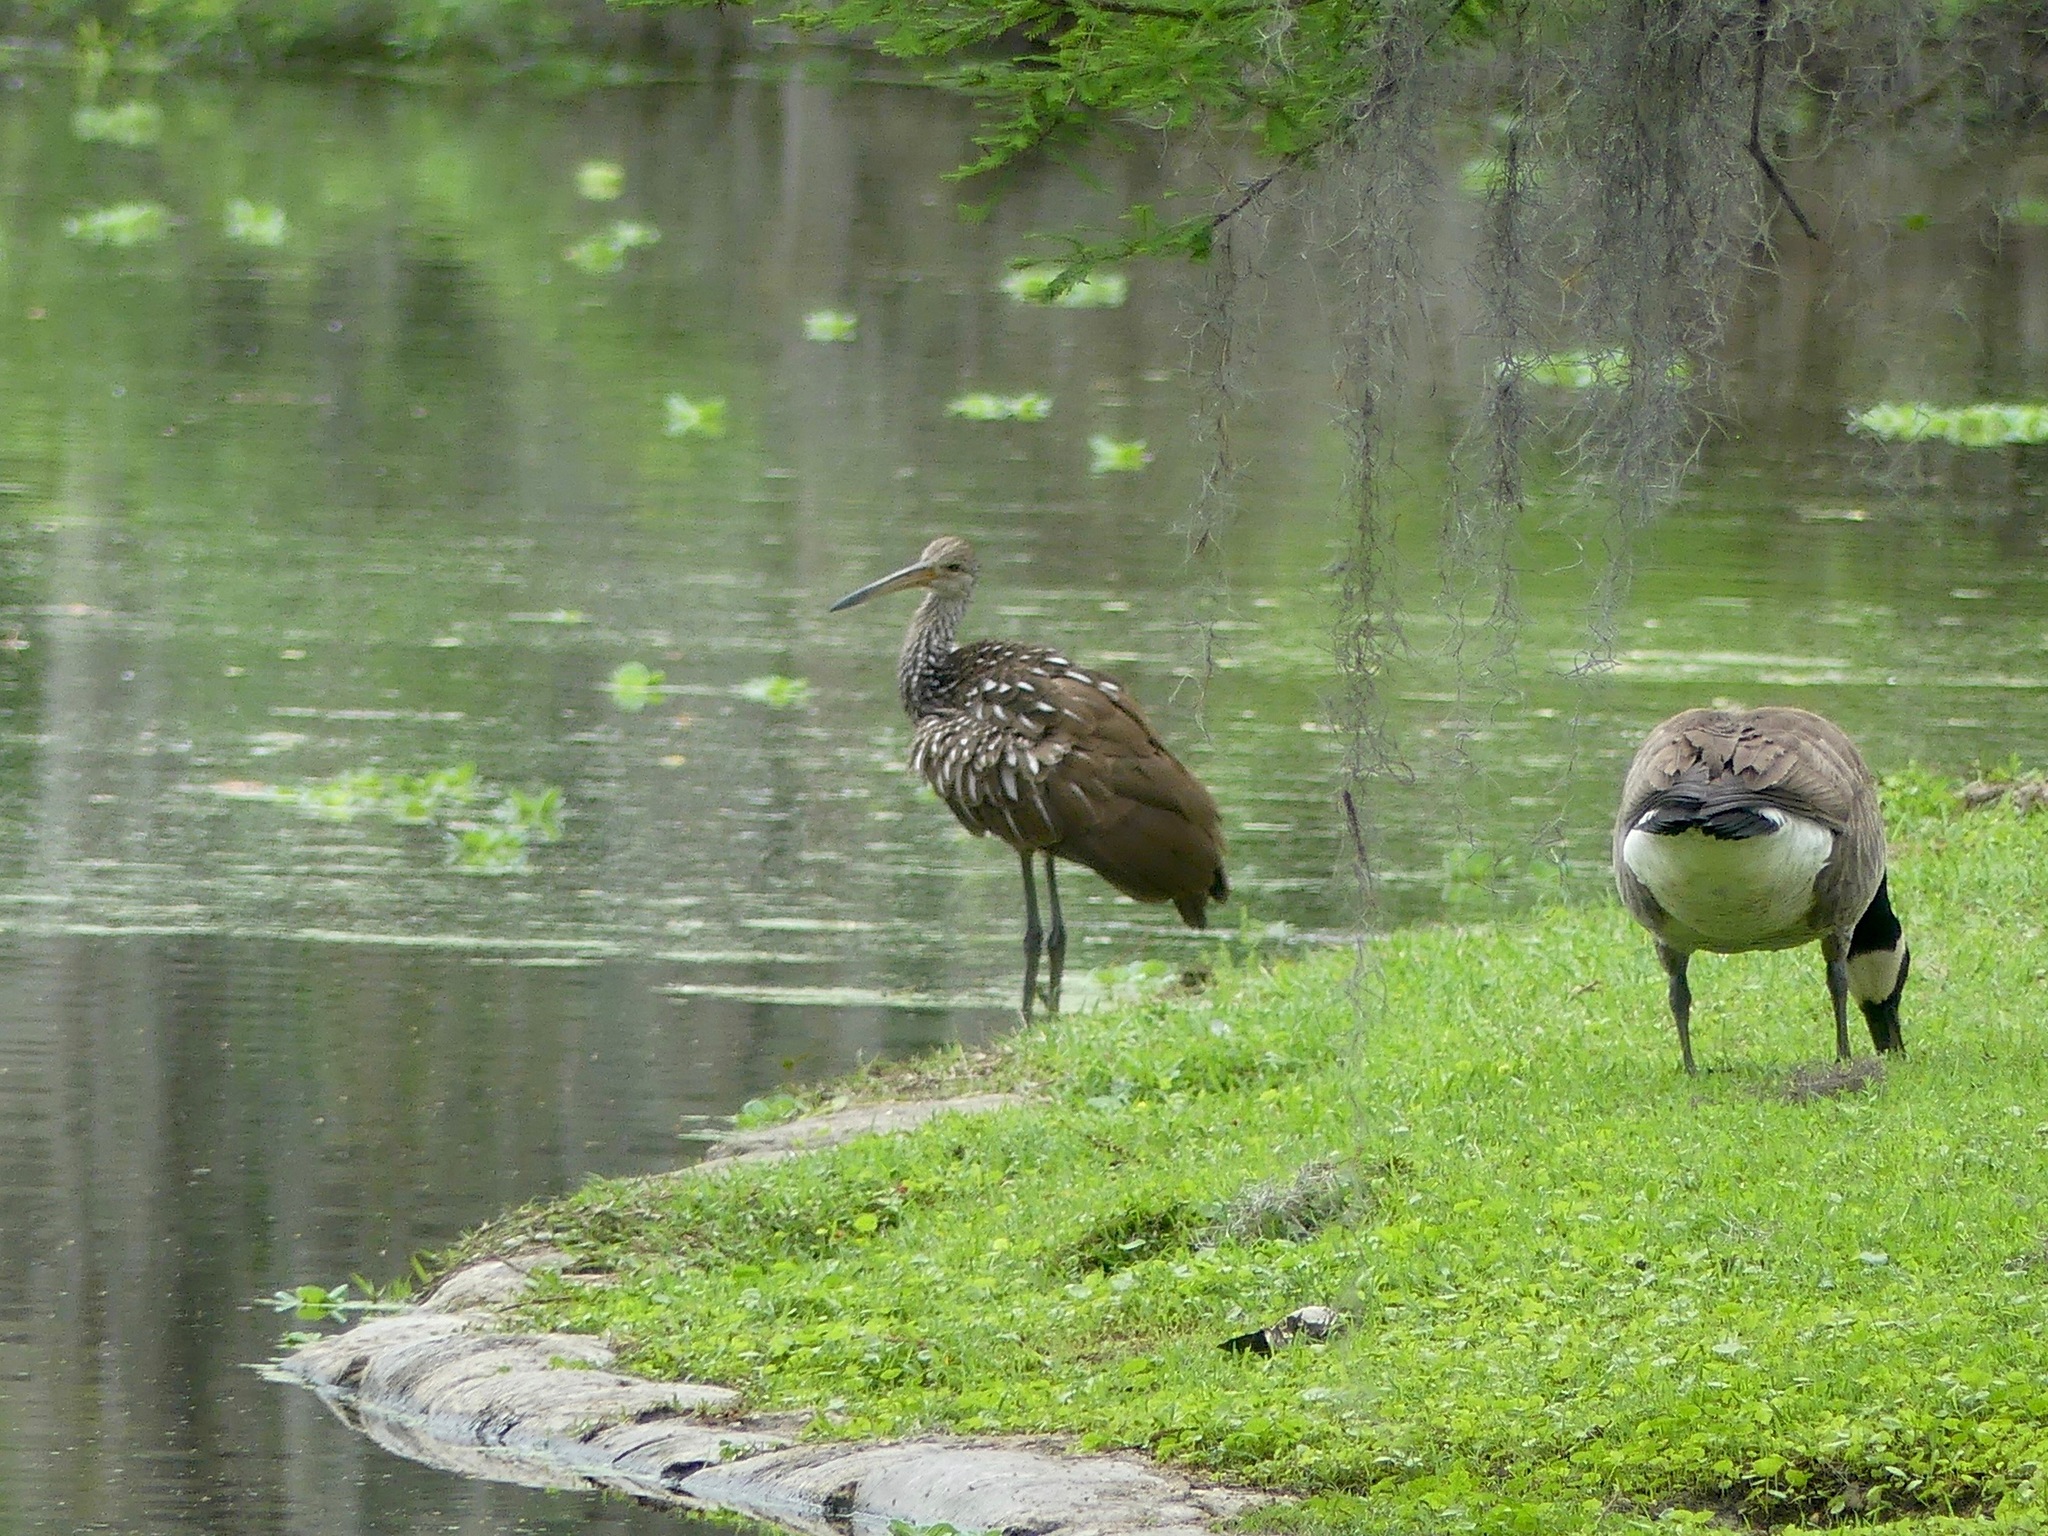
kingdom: Animalia
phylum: Chordata
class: Aves
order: Gruiformes
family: Aramidae
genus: Aramus
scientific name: Aramus guarauna
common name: Limpkin
